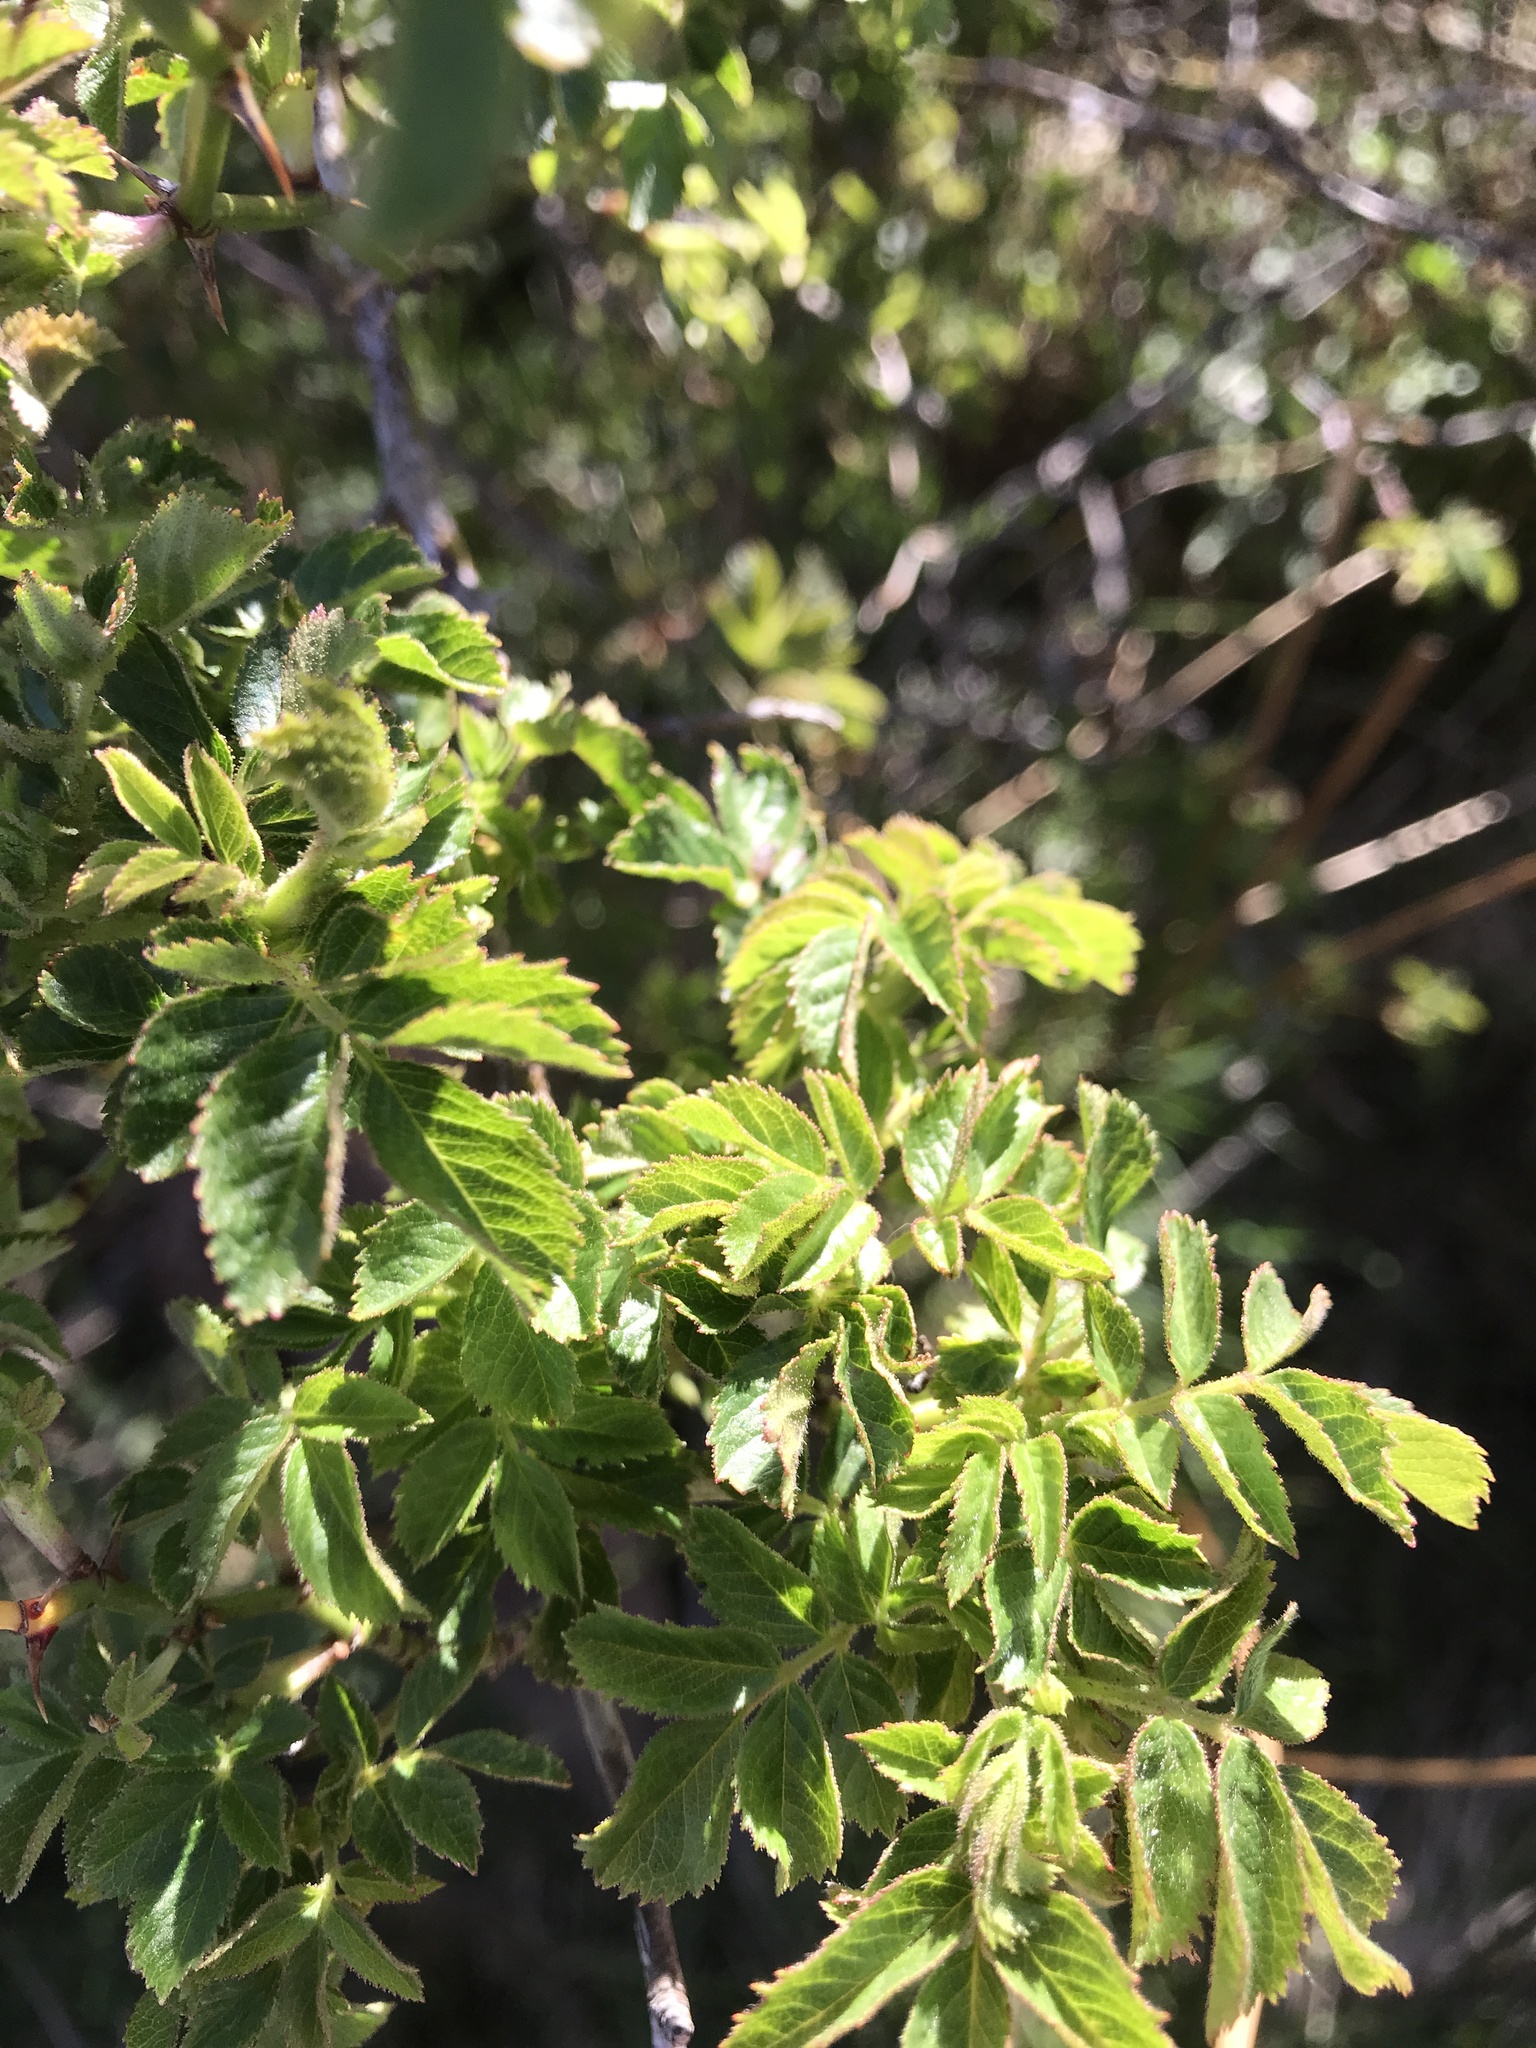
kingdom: Plantae
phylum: Tracheophyta
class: Magnoliopsida
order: Rosales
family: Rosaceae
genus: Rosa
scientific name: Rosa rubiginosa
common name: Sweet-briar
